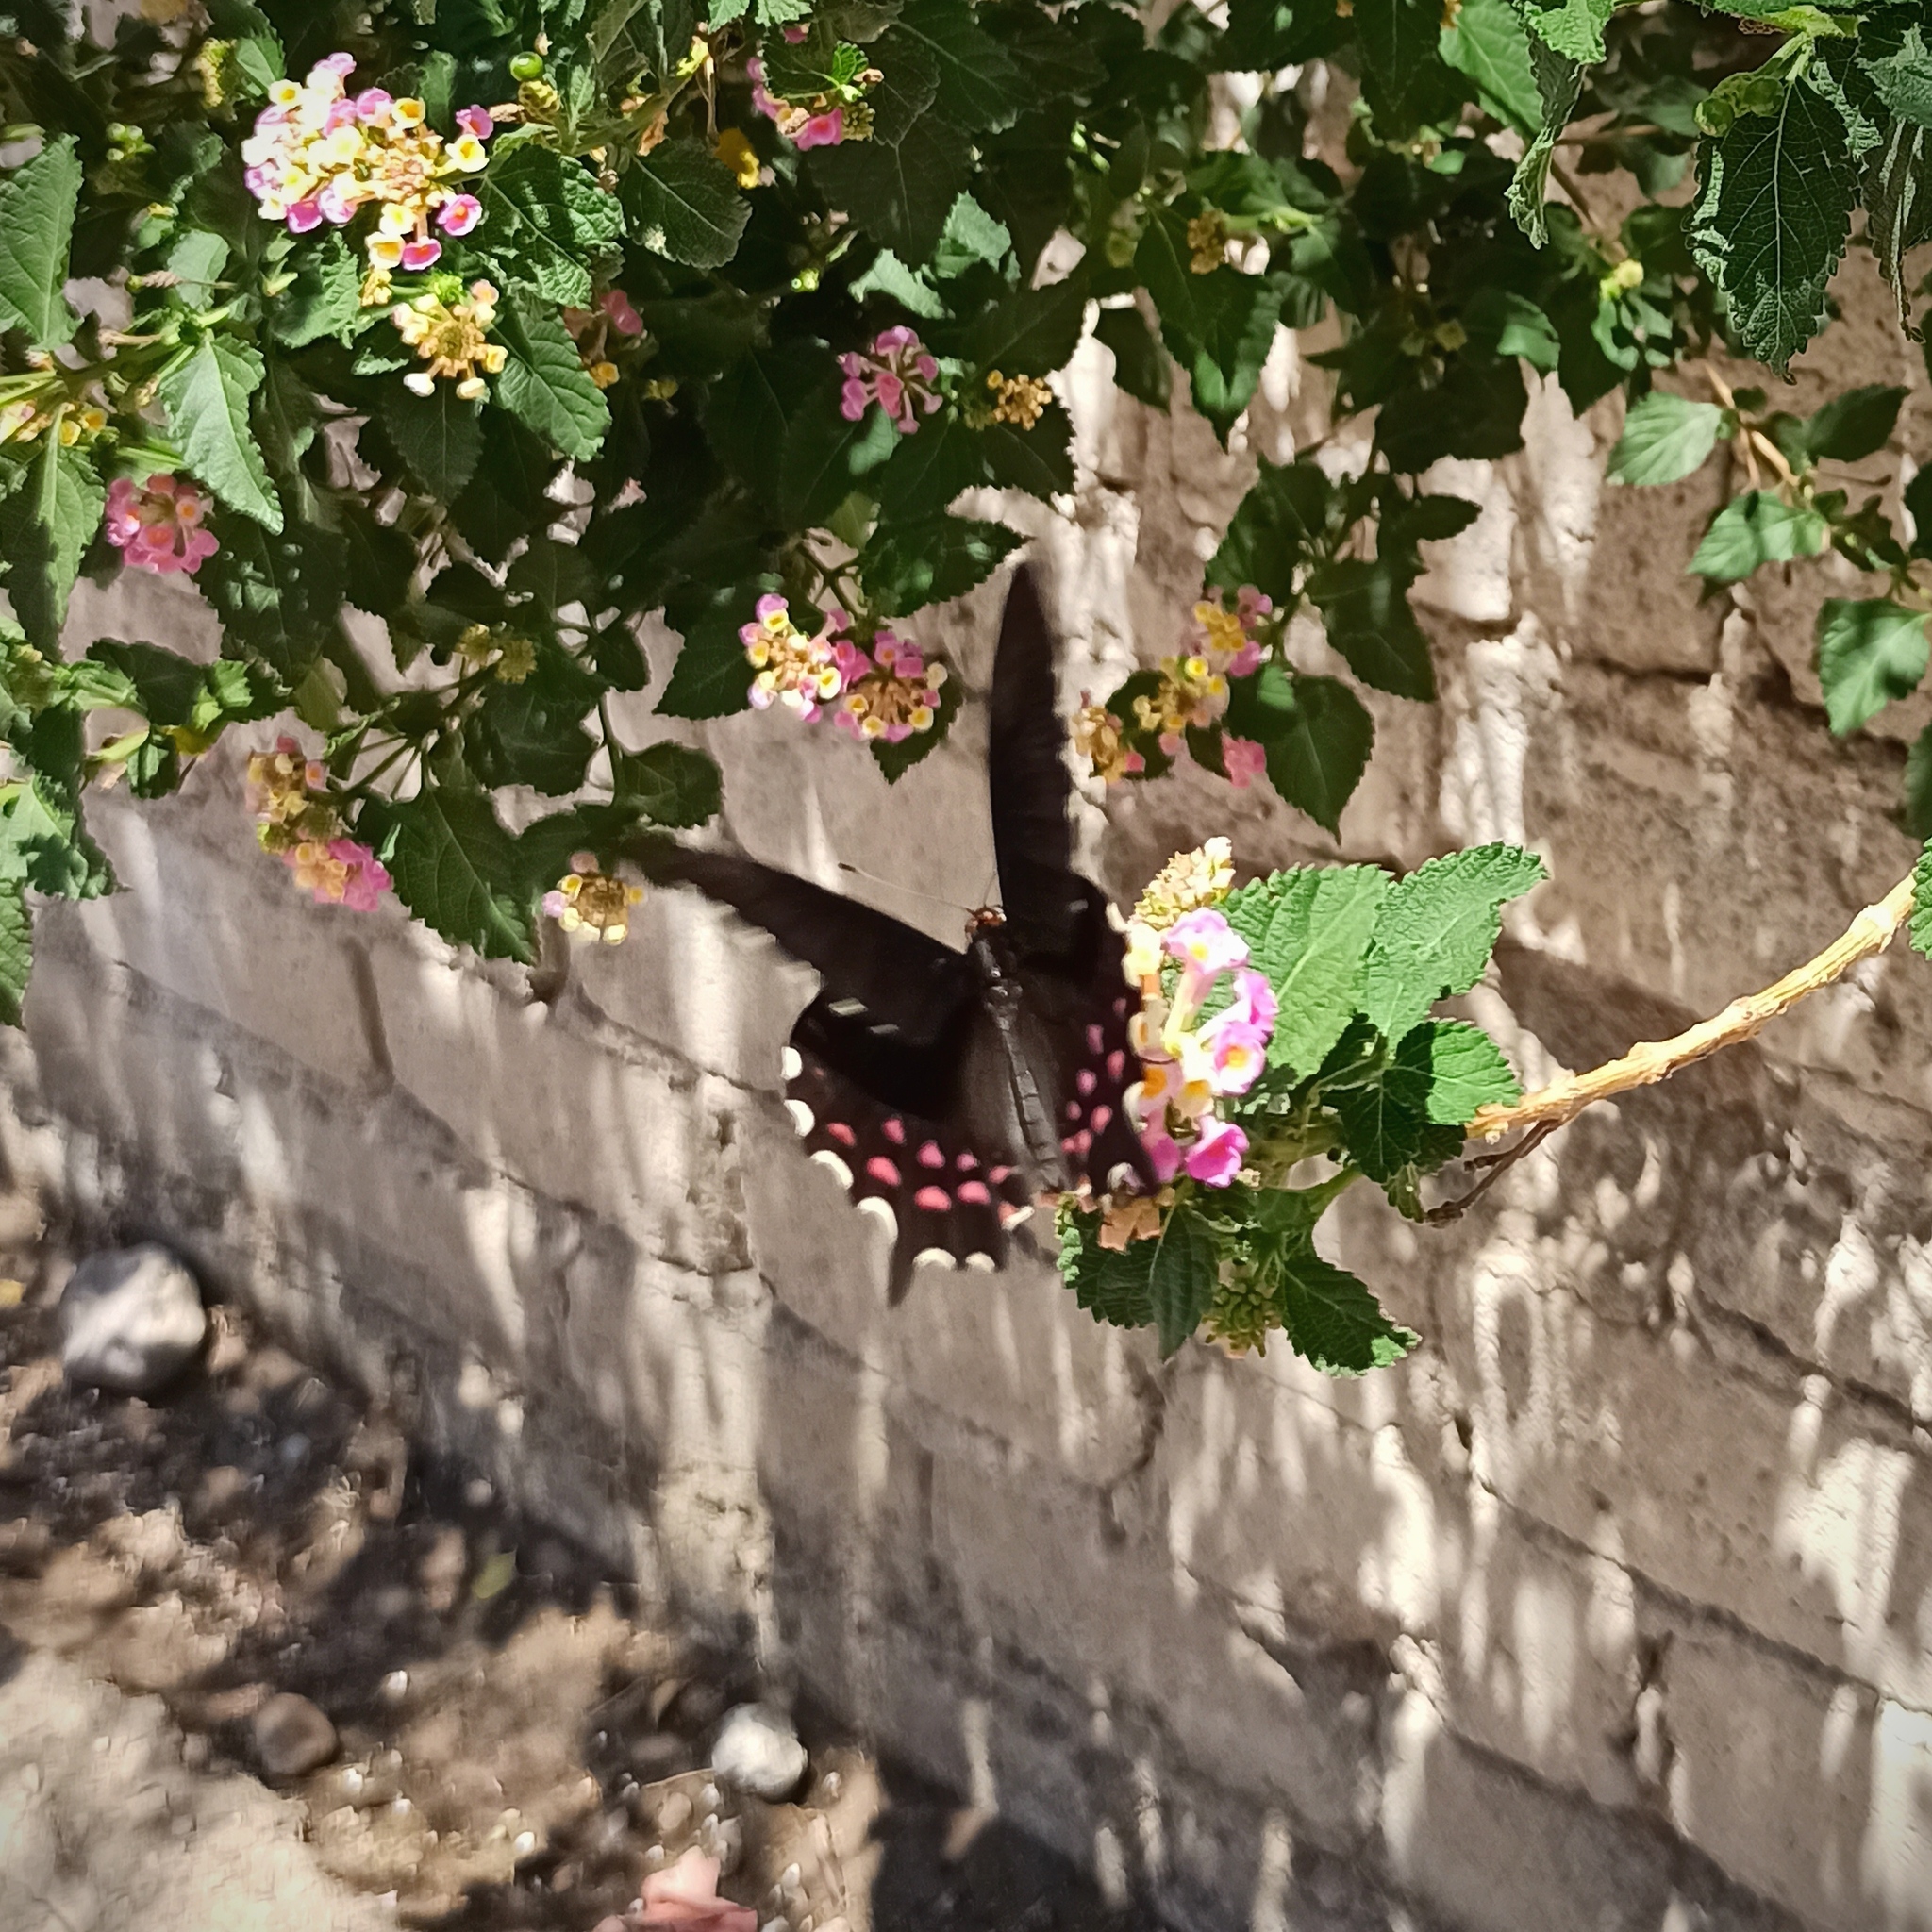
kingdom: Animalia
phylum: Arthropoda
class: Insecta
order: Lepidoptera
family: Papilionidae
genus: Heraclides
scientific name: Heraclides rogeri
